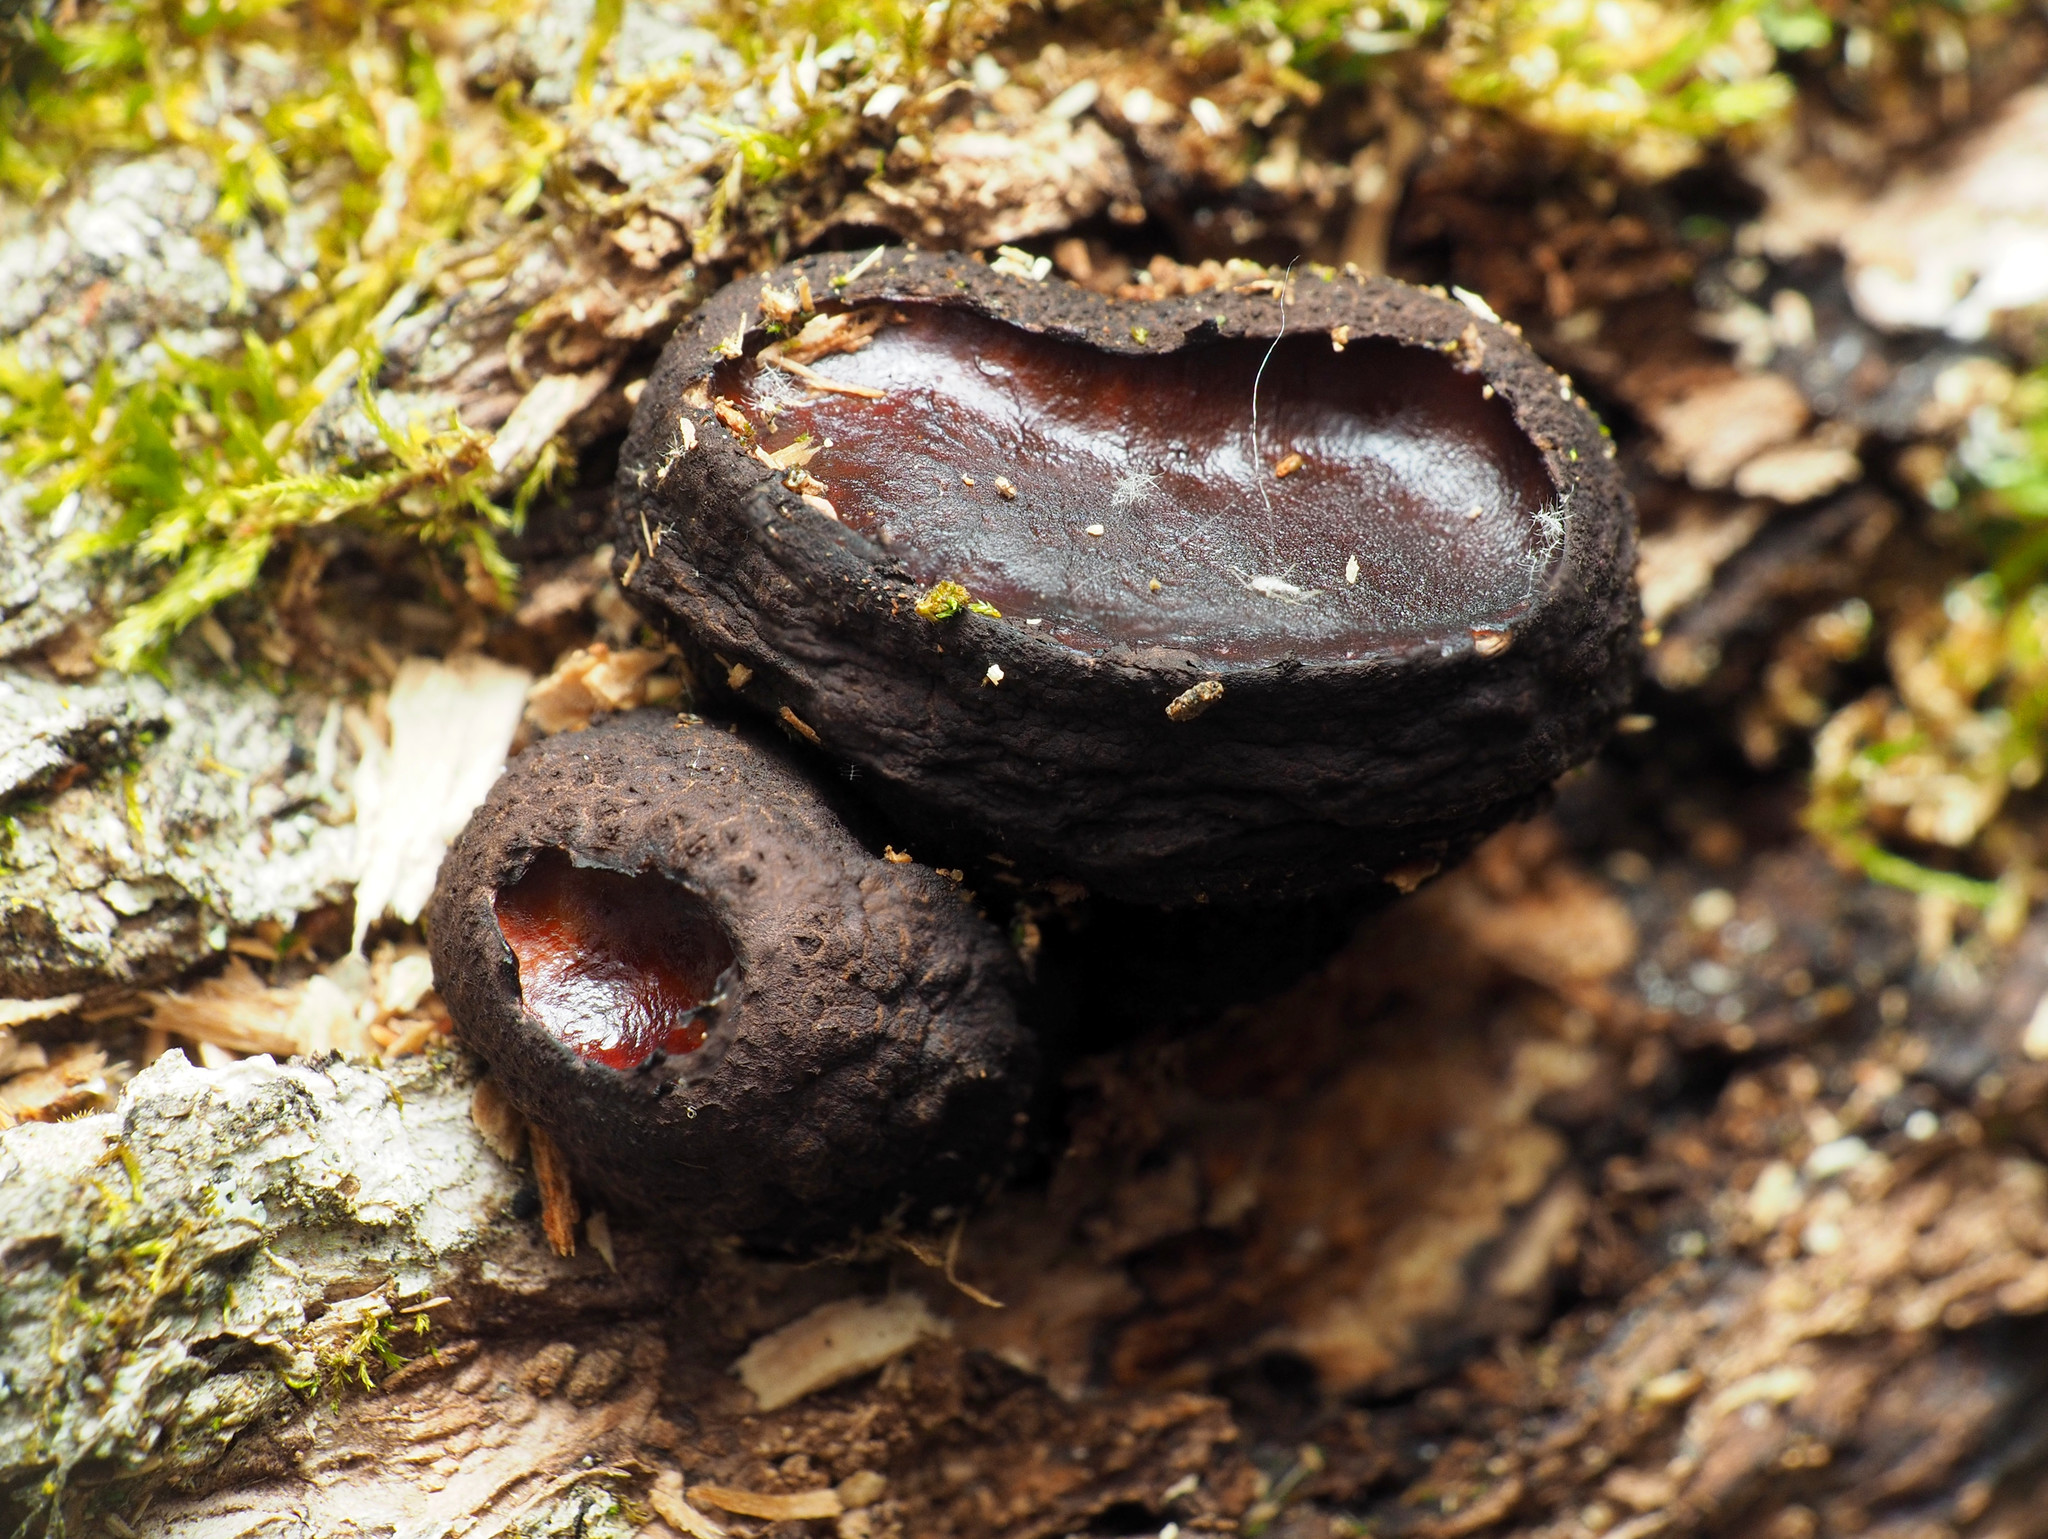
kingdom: Fungi
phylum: Ascomycota
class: Leotiomycetes
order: Phacidiales
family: Phacidiaceae
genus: Bulgaria
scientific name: Bulgaria inquinans
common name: Black bulgar
